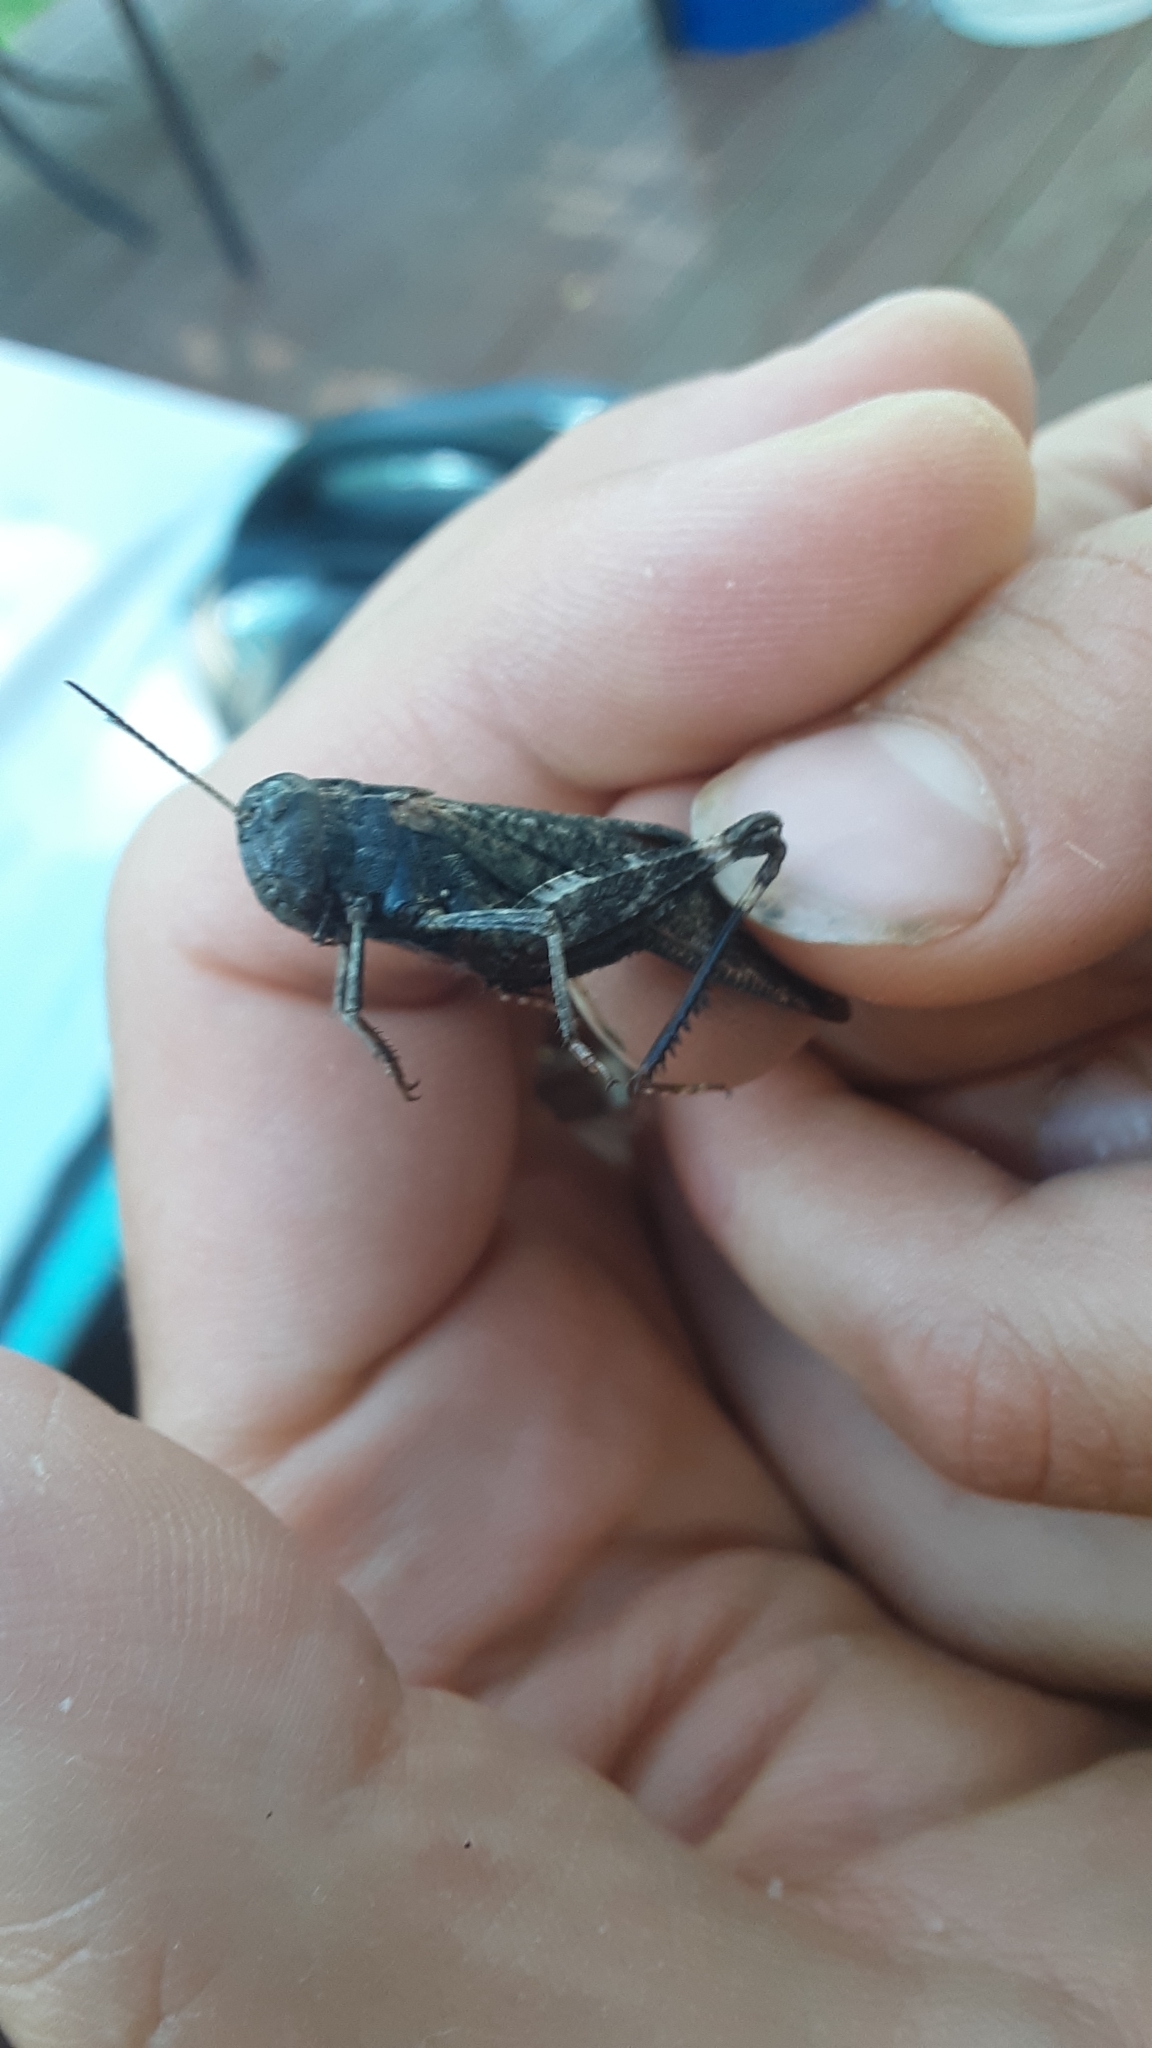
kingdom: Animalia
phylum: Arthropoda
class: Insecta
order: Orthoptera
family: Acrididae
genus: Arphia
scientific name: Arphia pseudo-nietana
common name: Red-winged grasshopper
